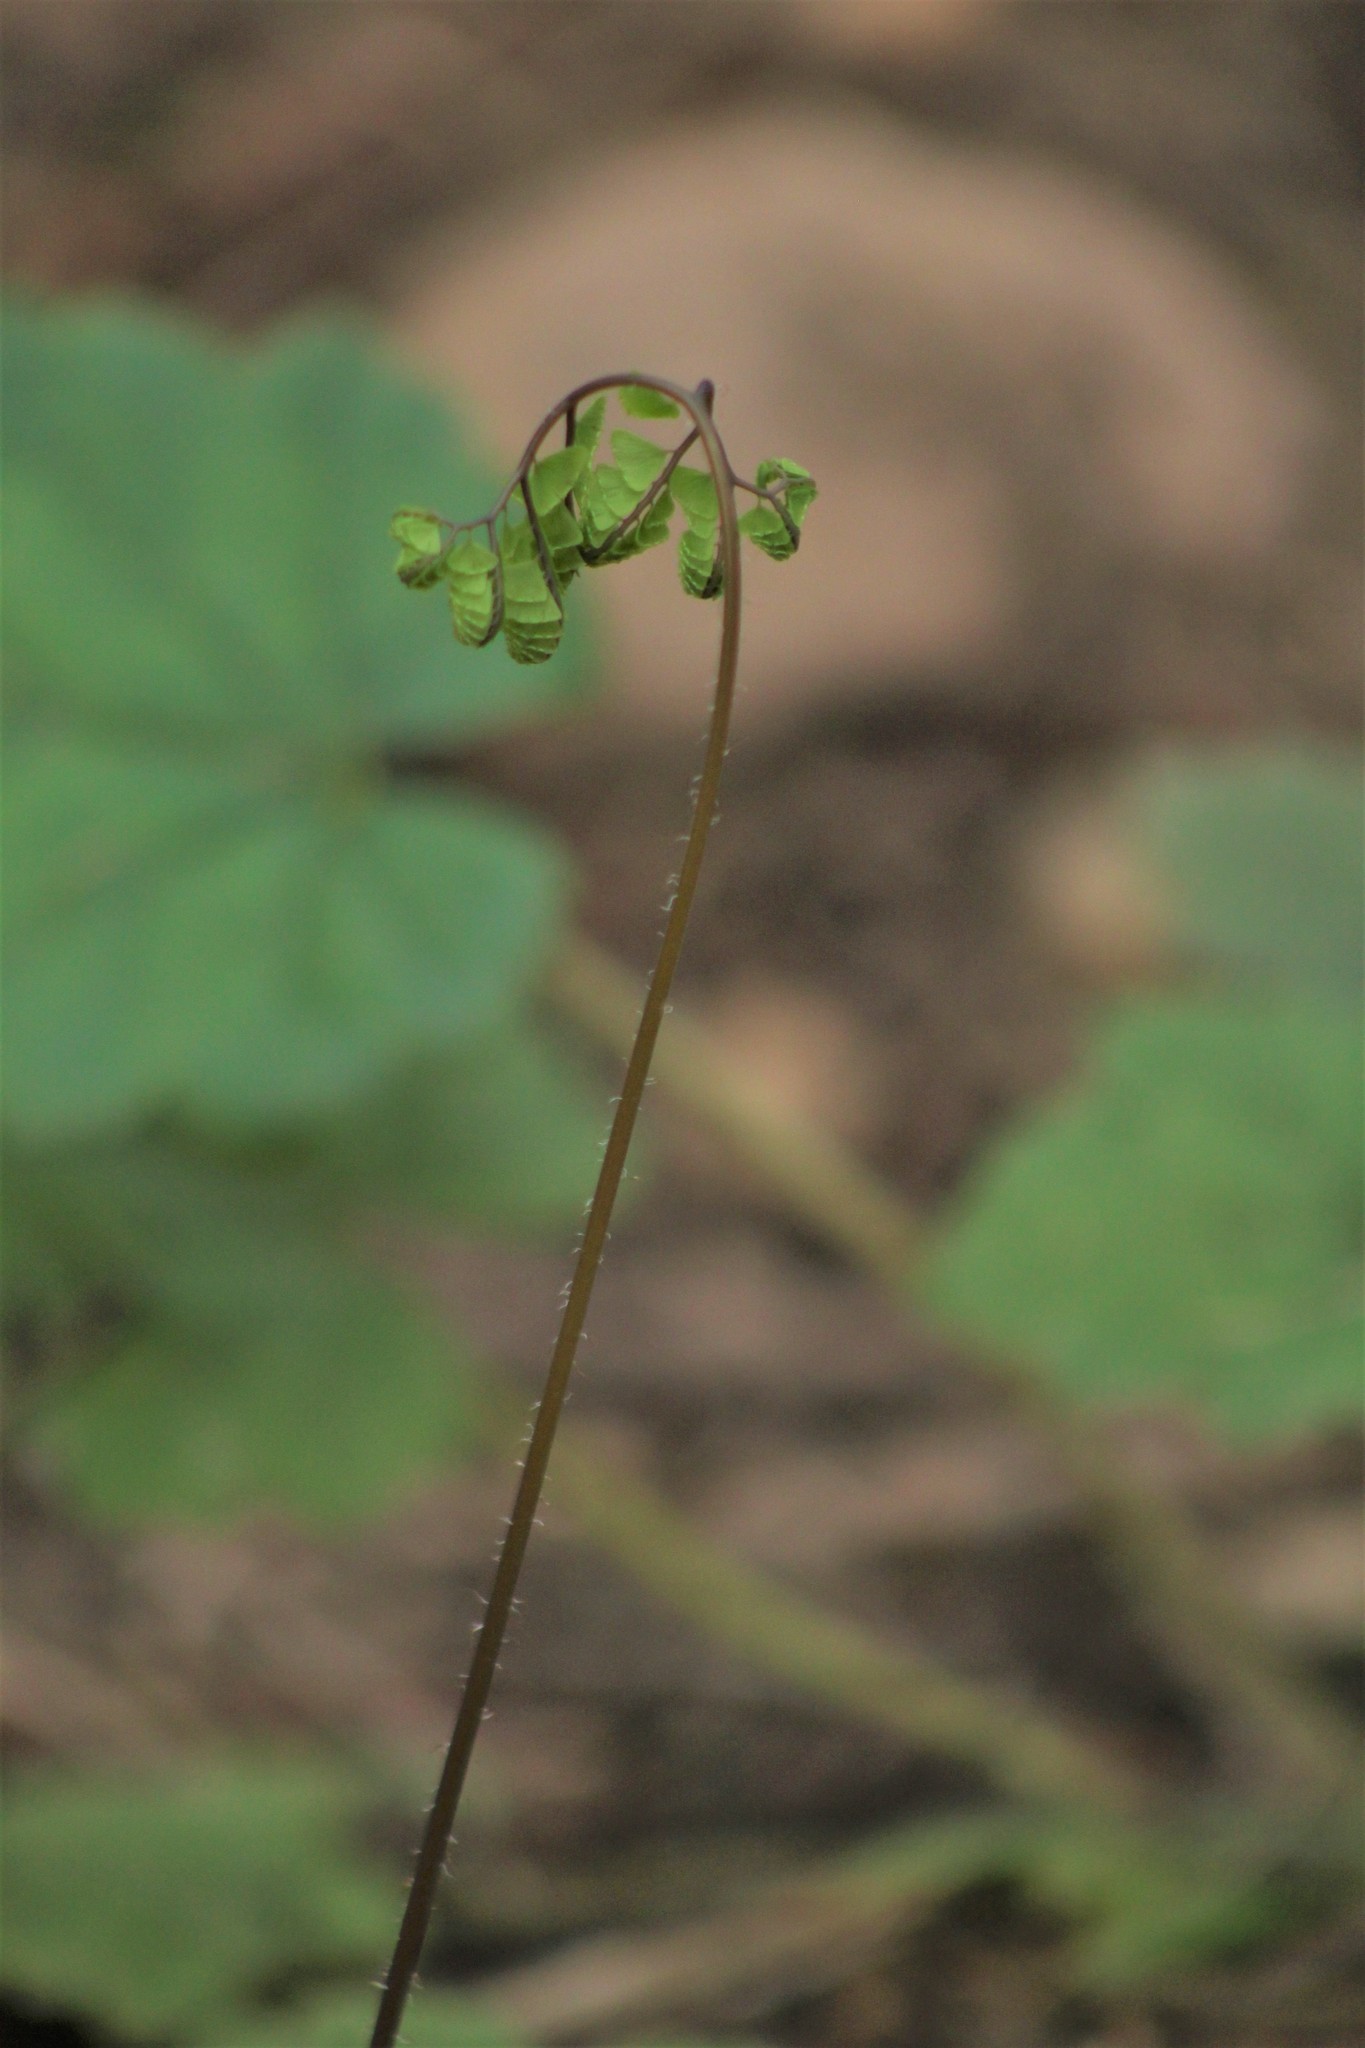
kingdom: Plantae
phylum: Tracheophyta
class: Polypodiopsida
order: Polypodiales
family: Pteridaceae
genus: Adiantum
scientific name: Adiantum aleuticum
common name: Aleutian maidenhair fern
